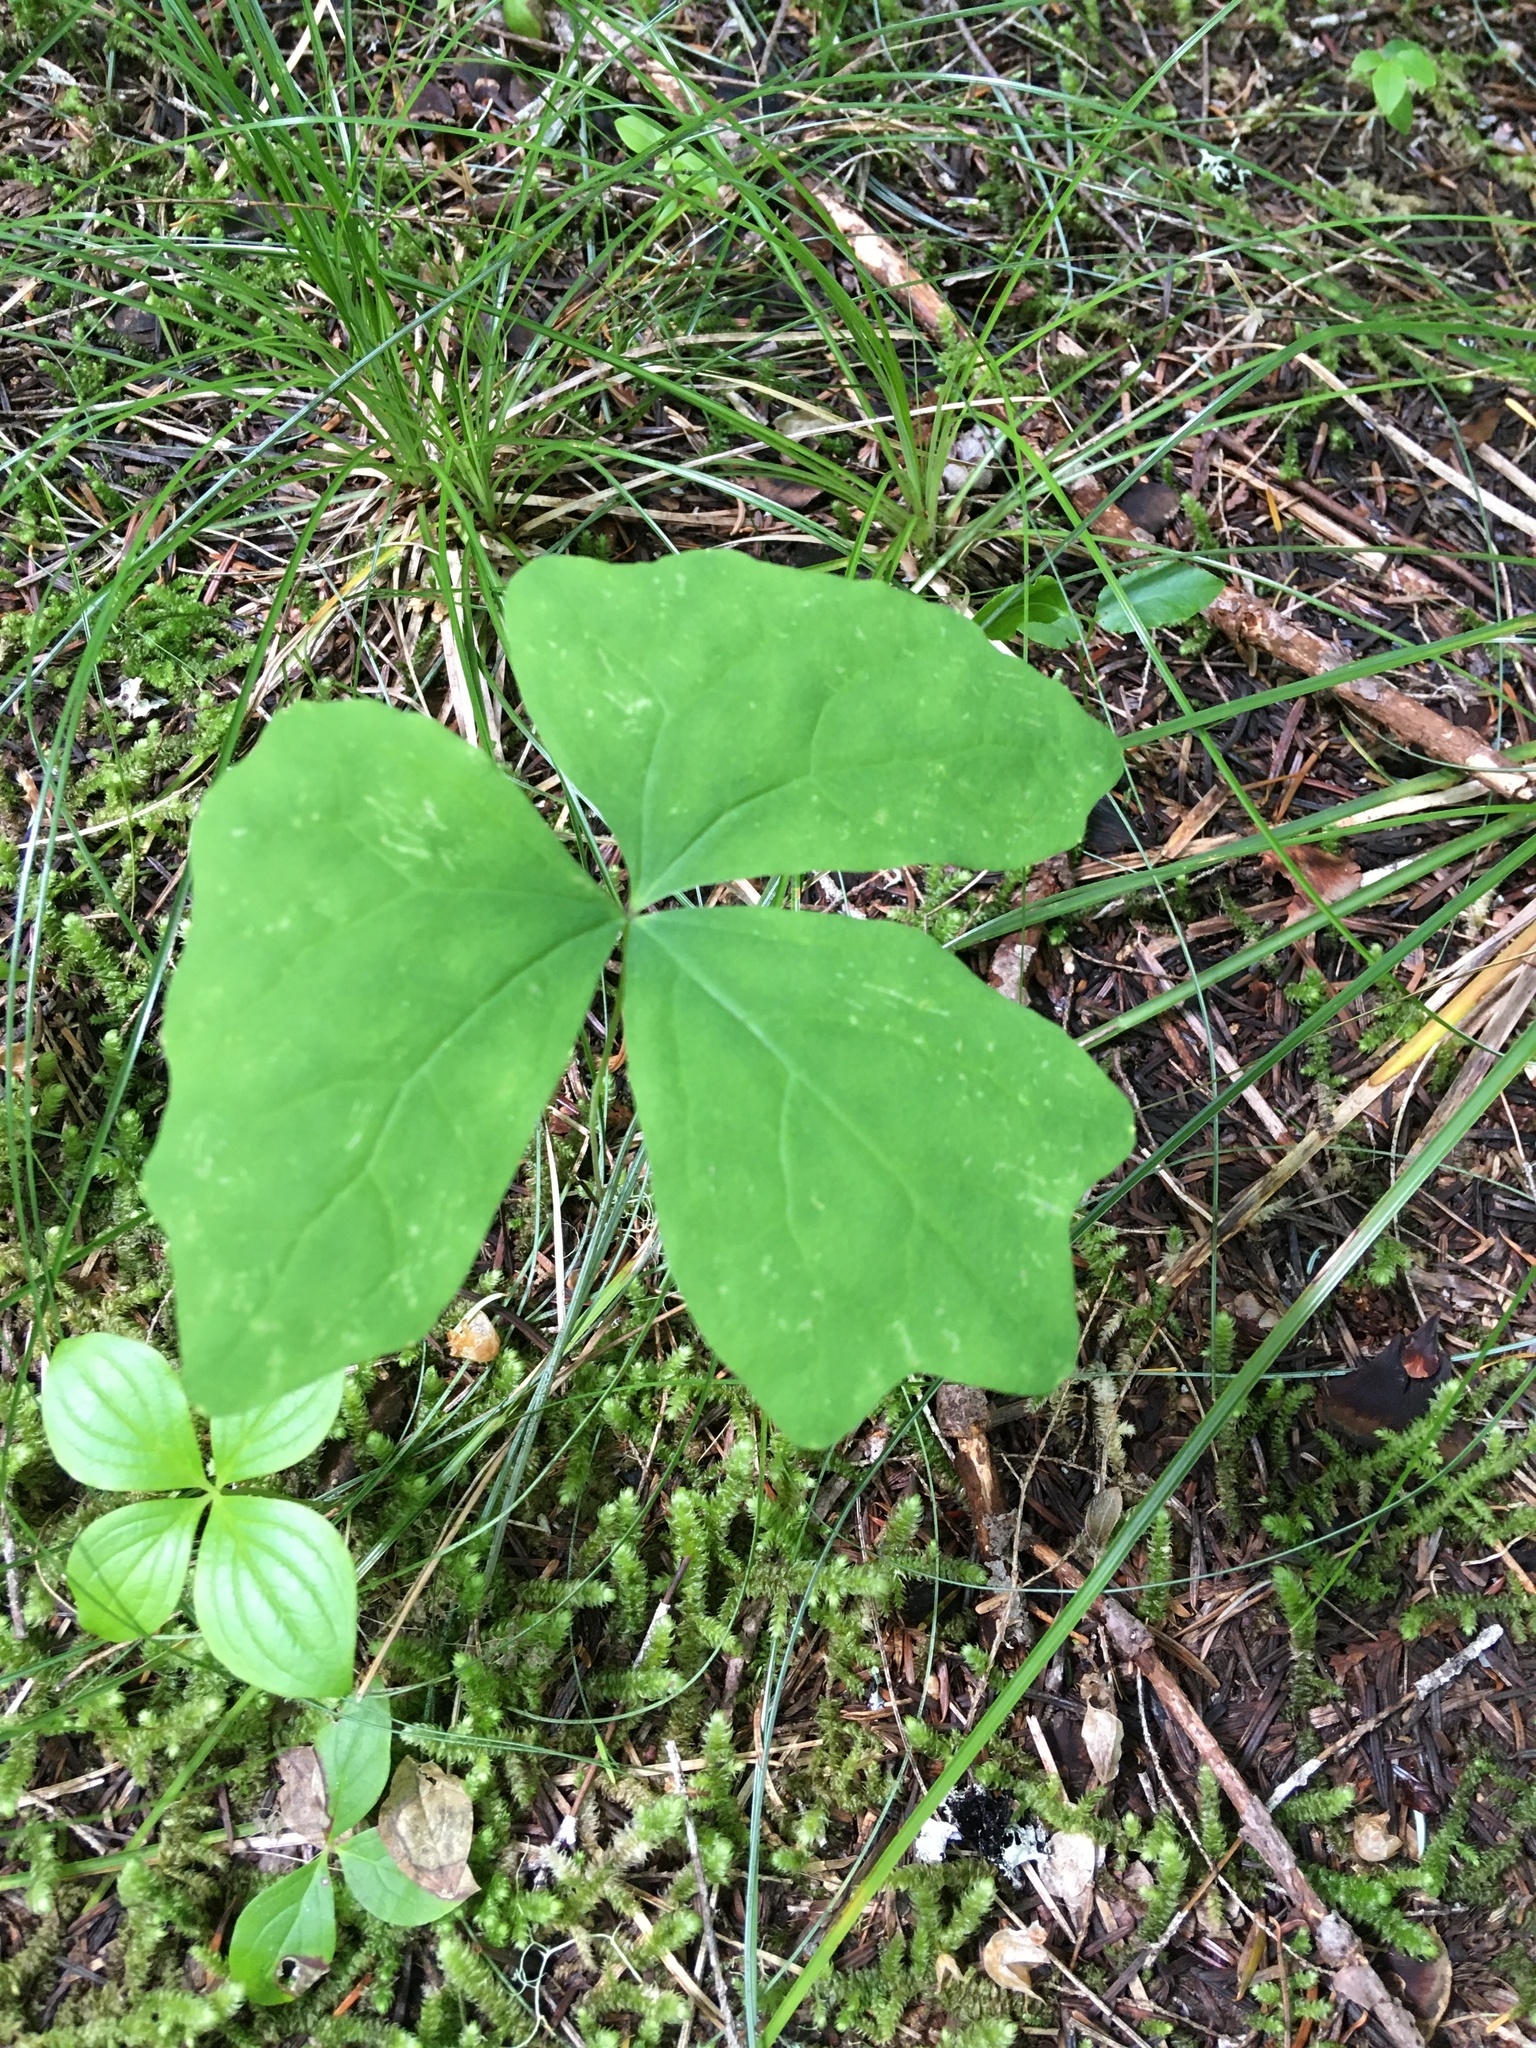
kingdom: Plantae
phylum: Tracheophyta
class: Magnoliopsida
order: Ranunculales
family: Berberidaceae
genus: Vancouveria
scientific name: Vancouveria hexandra
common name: Northern inside-out-flower
